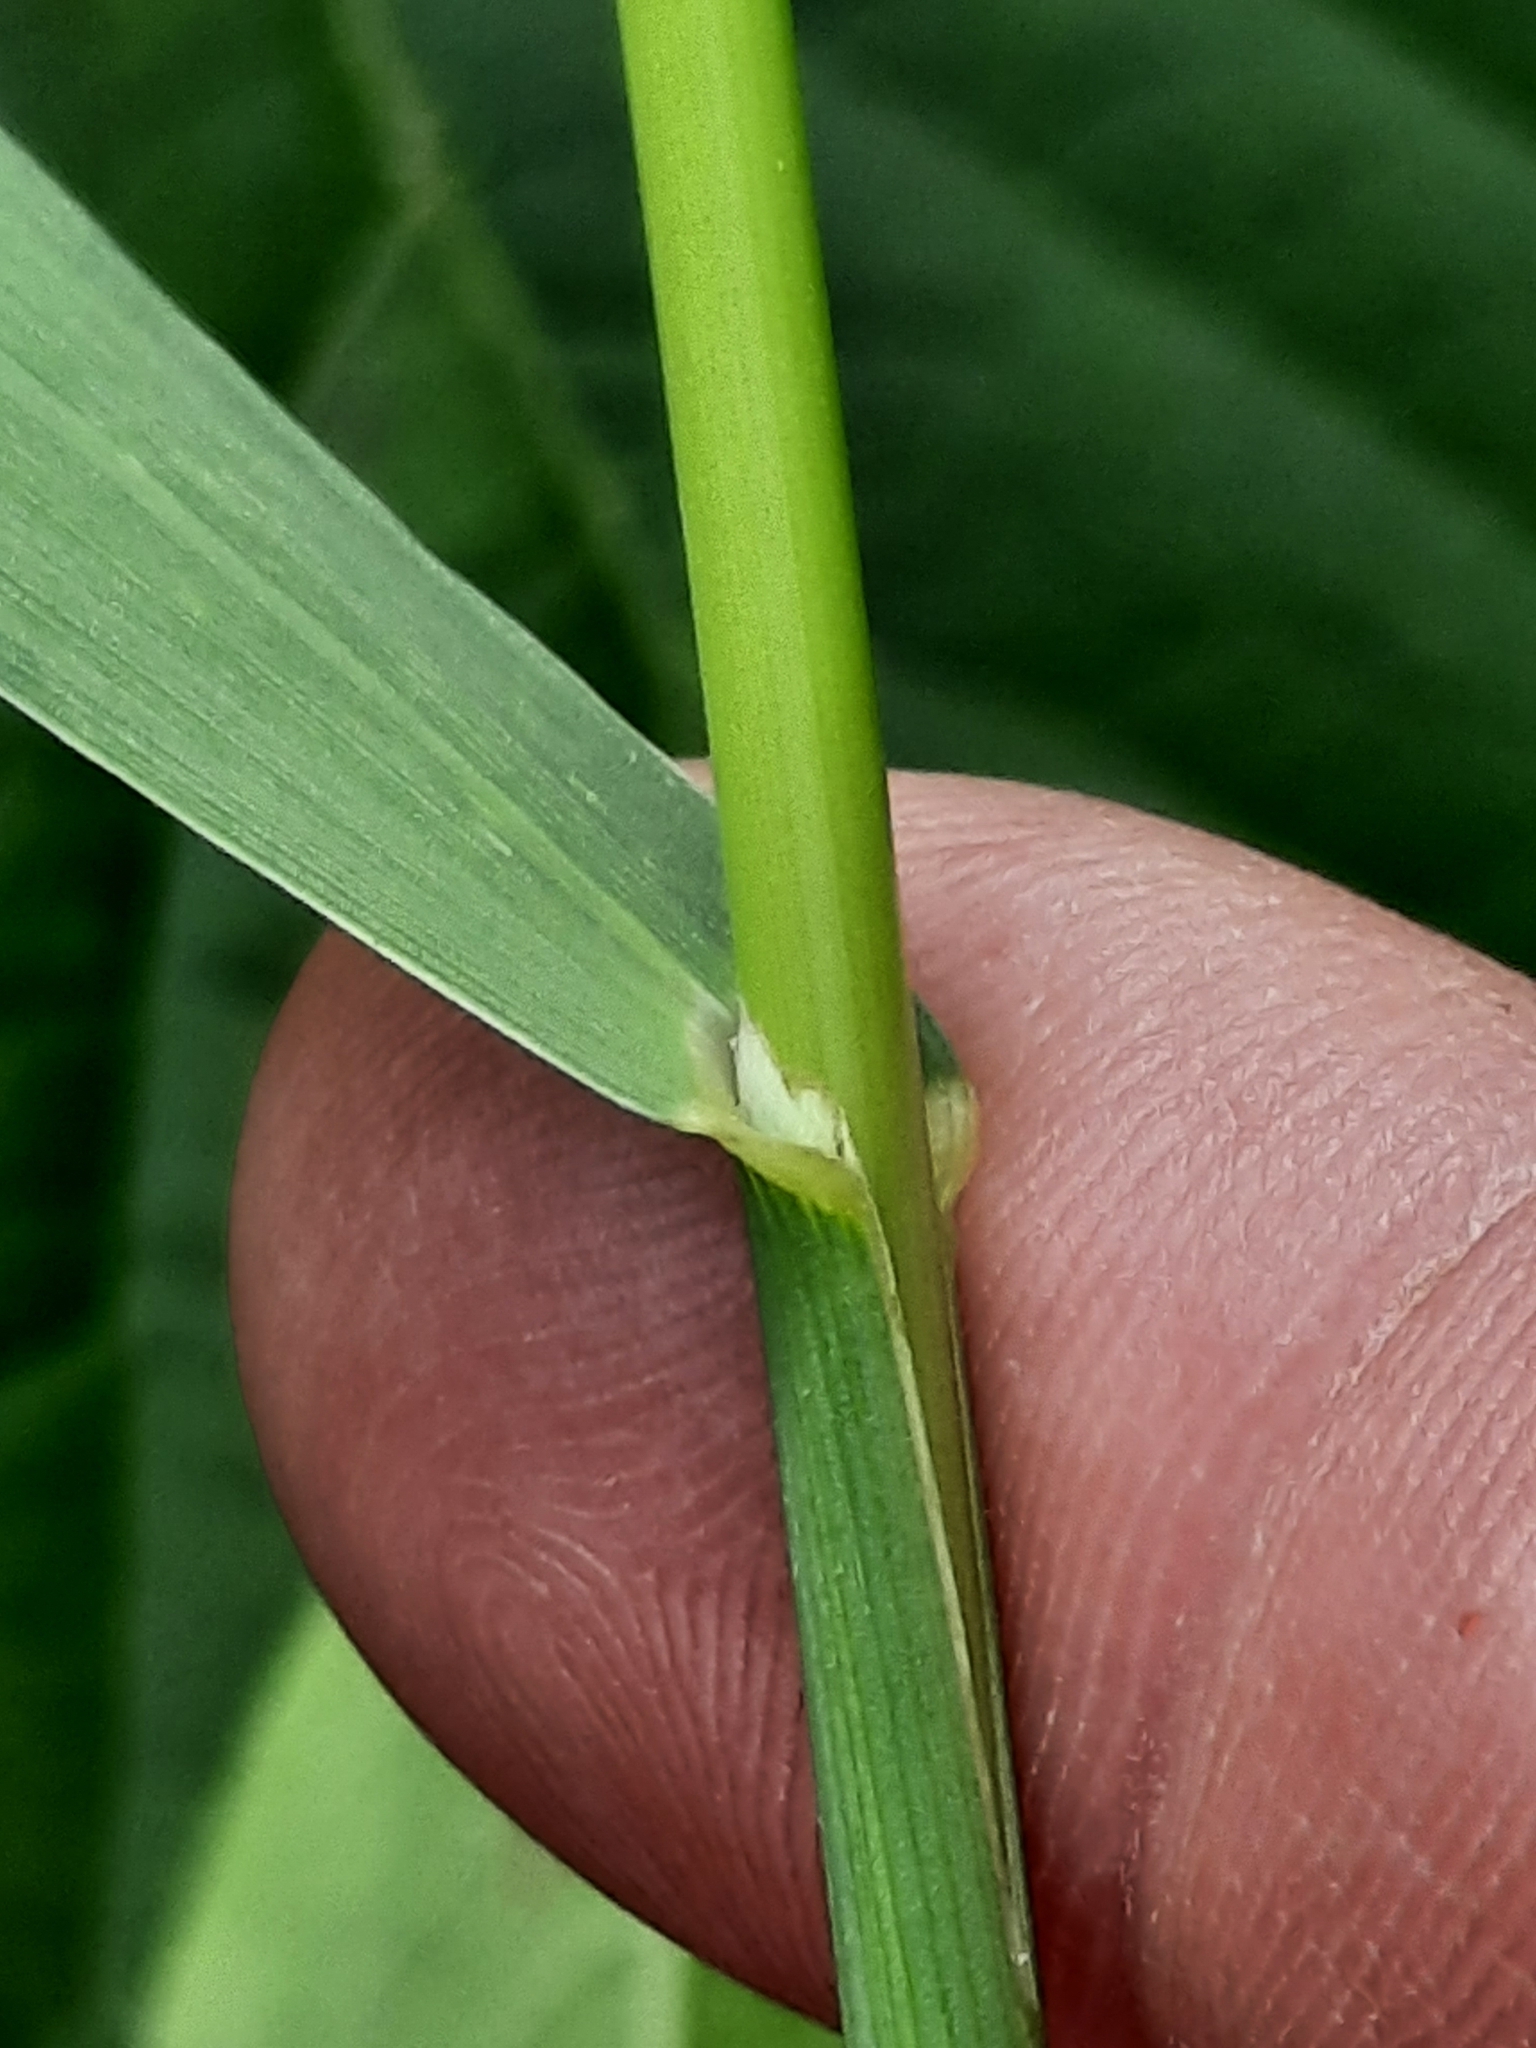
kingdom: Plantae
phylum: Tracheophyta
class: Liliopsida
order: Poales
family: Poaceae
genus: Bromus
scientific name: Bromus inermis
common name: Smooth brome
